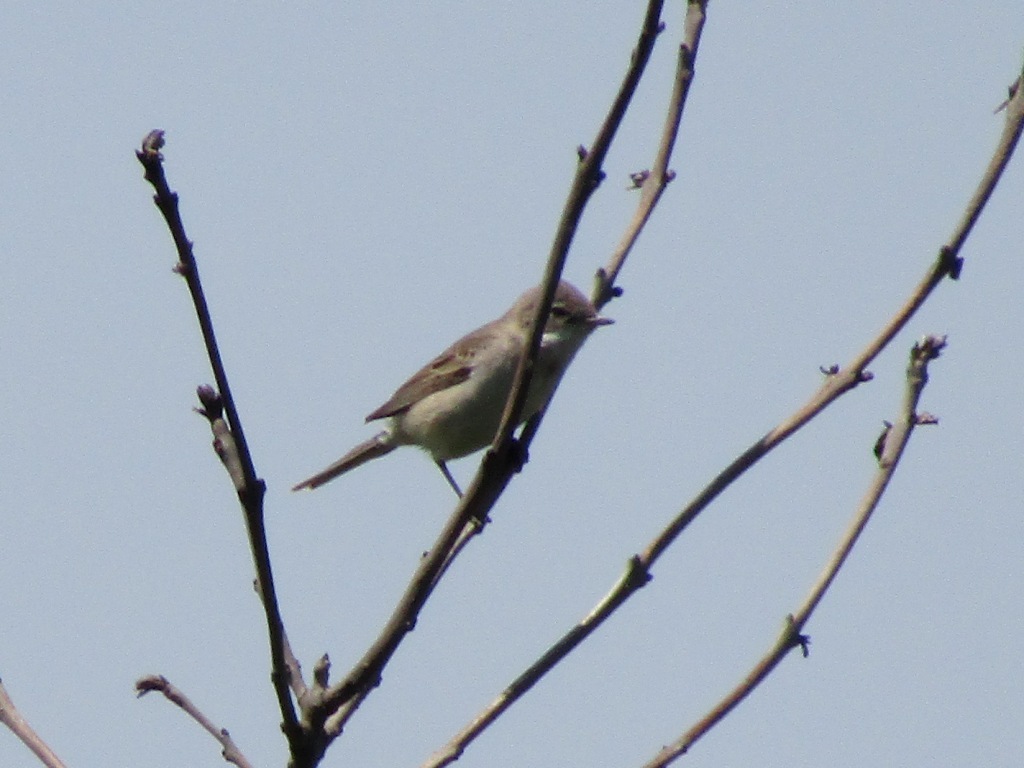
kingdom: Animalia
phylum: Chordata
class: Aves
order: Passeriformes
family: Sylviidae
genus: Sylvia
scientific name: Sylvia communis
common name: Common whitethroat
